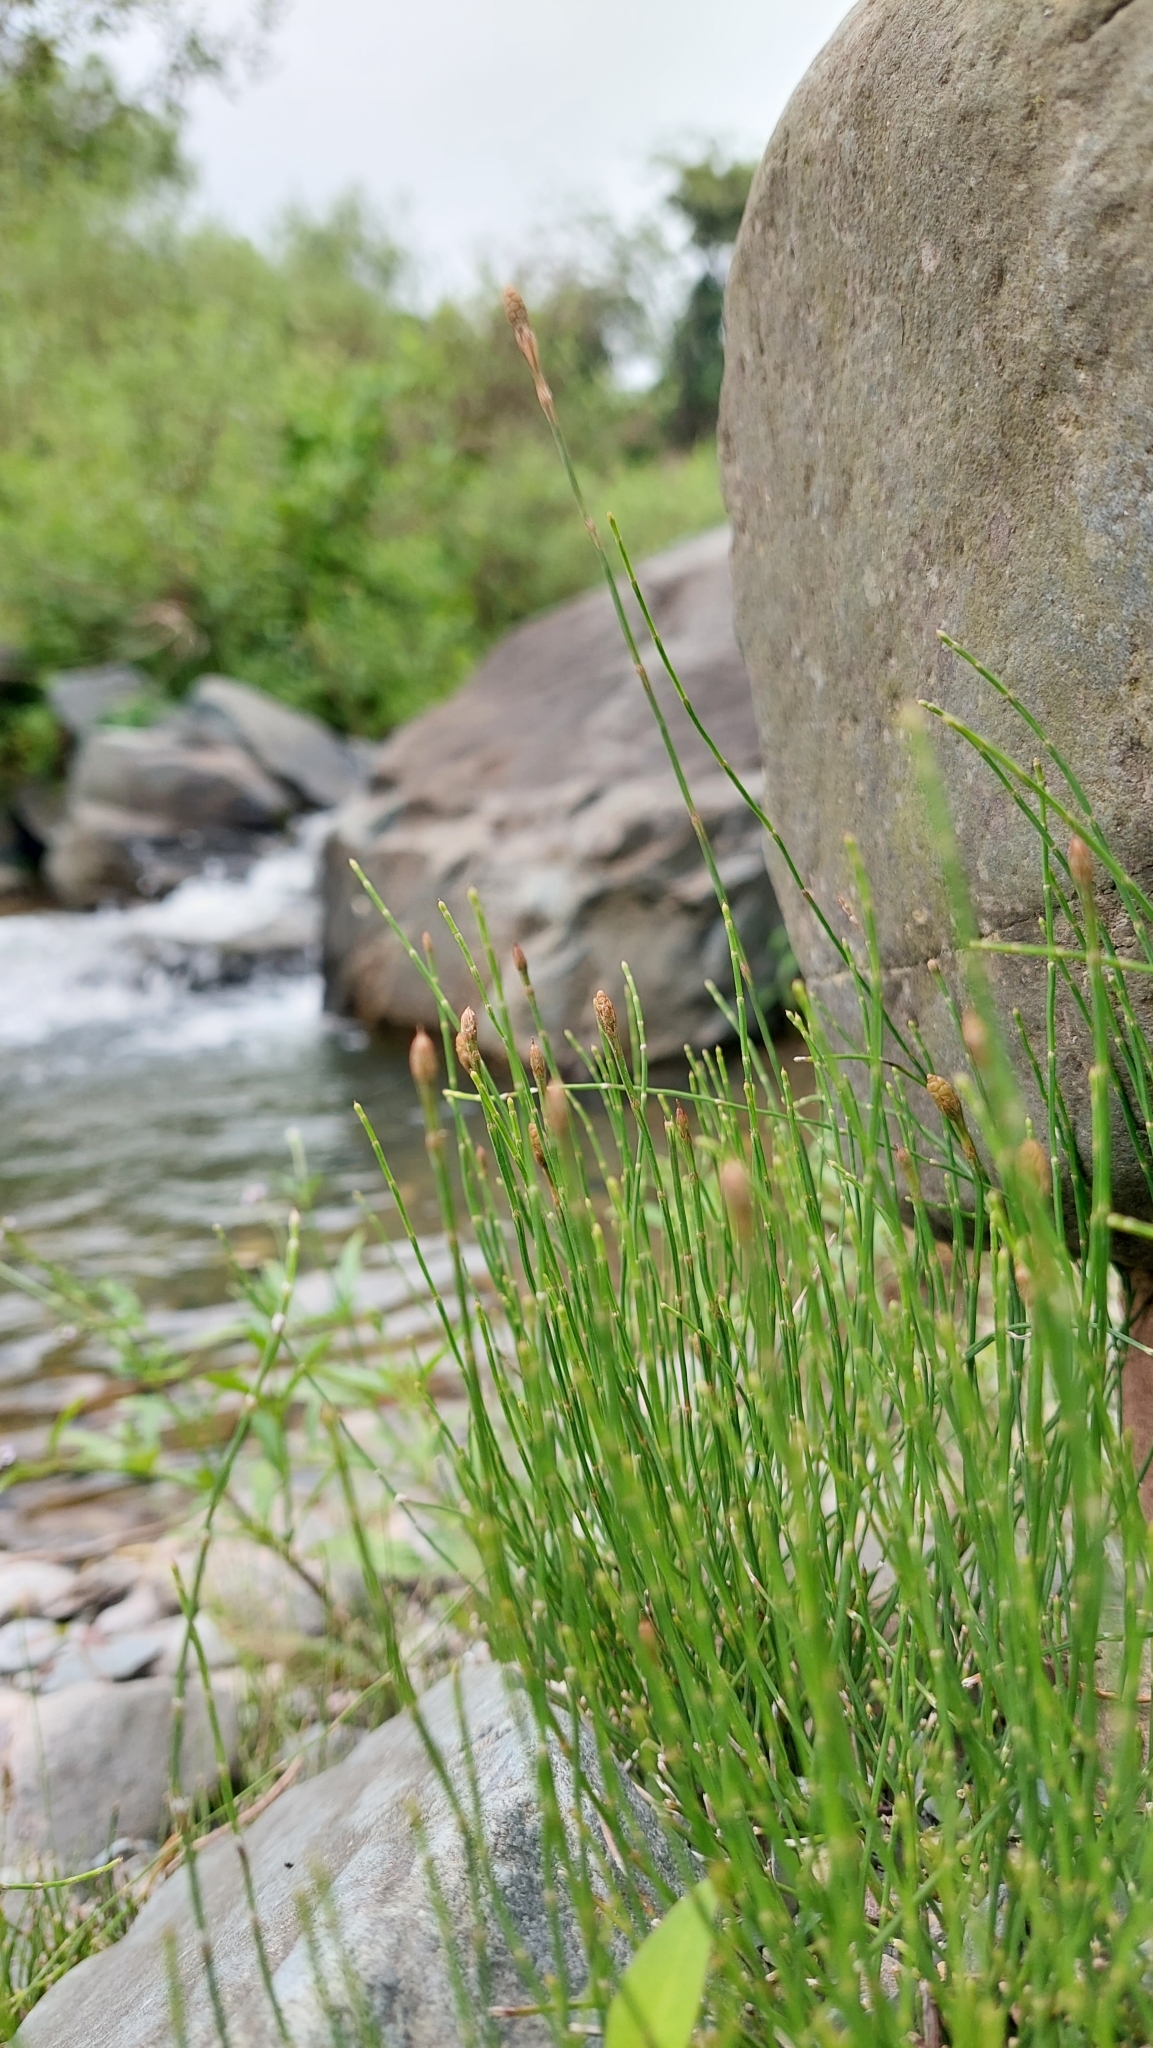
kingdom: Plantae
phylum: Tracheophyta
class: Polypodiopsida
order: Equisetales
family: Equisetaceae
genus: Equisetum
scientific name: Equisetum bogotense
